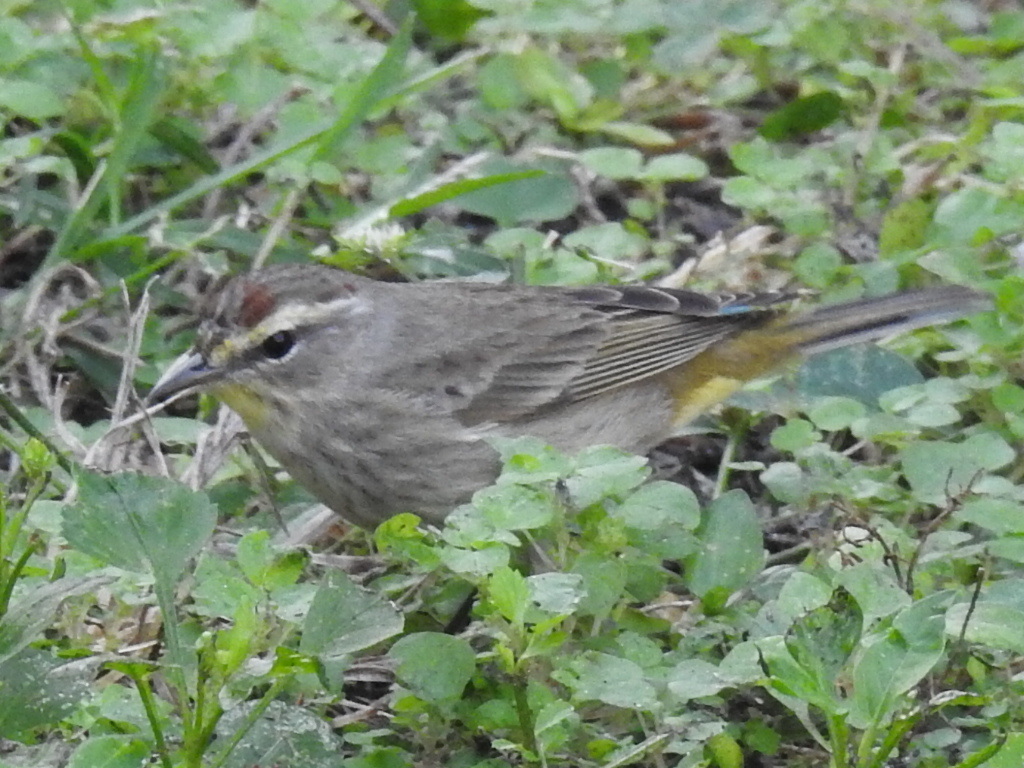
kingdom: Animalia
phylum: Chordata
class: Aves
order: Passeriformes
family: Parulidae
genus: Setophaga
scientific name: Setophaga palmarum
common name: Palm warbler
